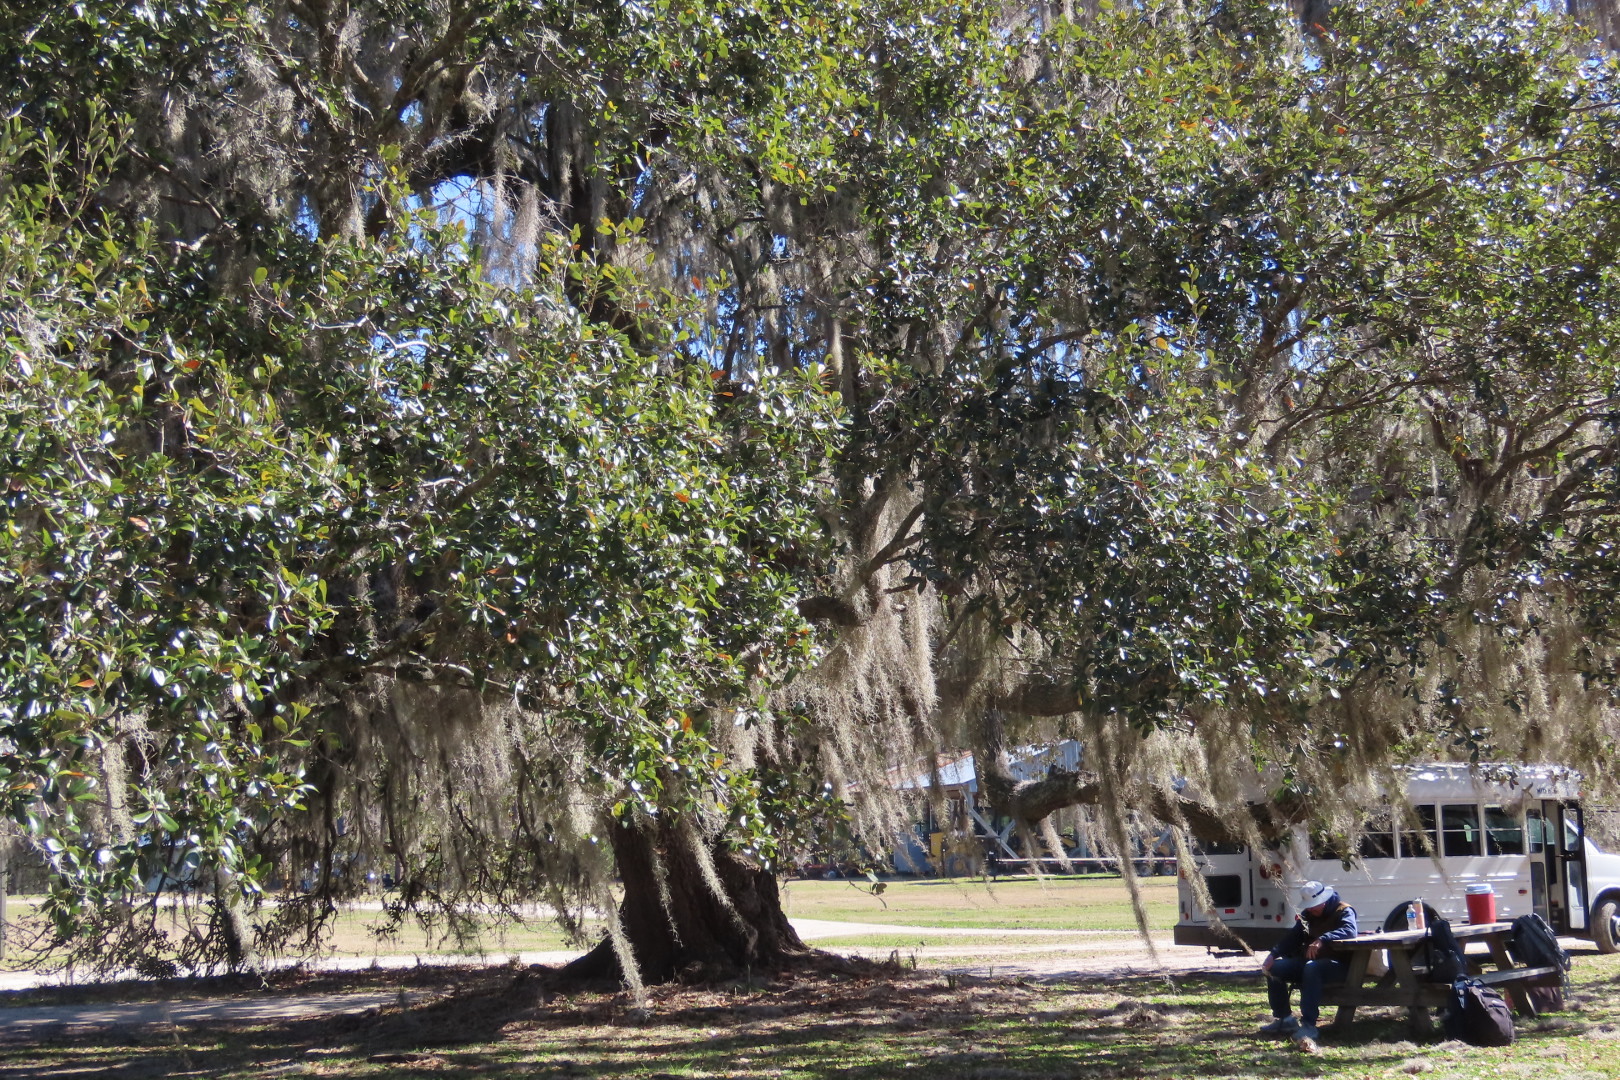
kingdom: Plantae
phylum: Tracheophyta
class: Liliopsida
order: Poales
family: Bromeliaceae
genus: Tillandsia
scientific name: Tillandsia usneoides
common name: Spanish moss
